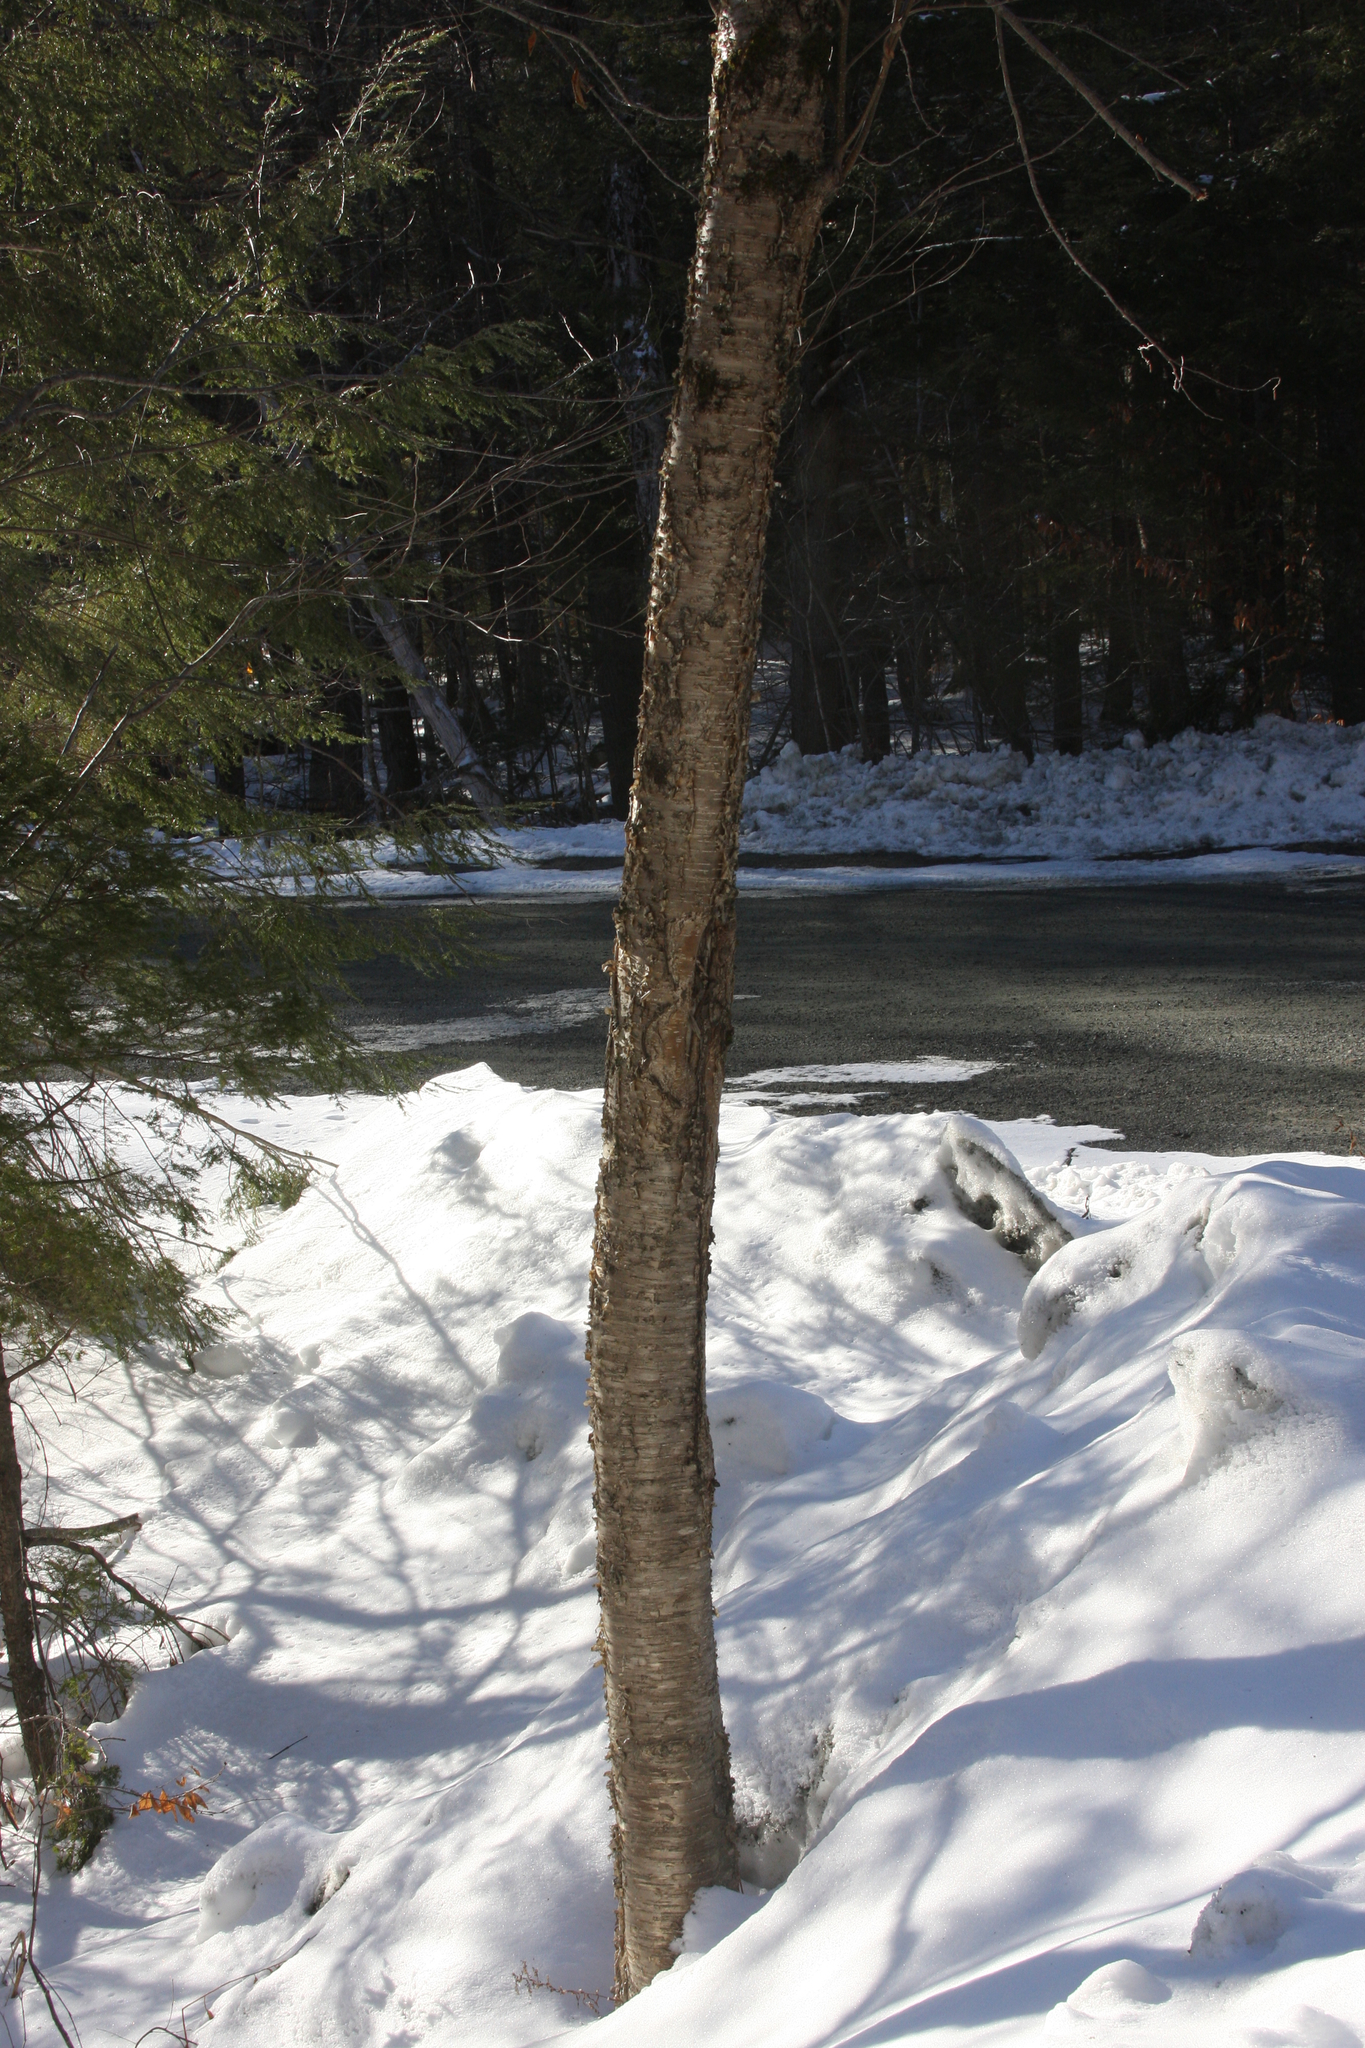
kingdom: Plantae
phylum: Tracheophyta
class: Magnoliopsida
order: Fagales
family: Betulaceae
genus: Betula
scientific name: Betula alleghaniensis
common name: Yellow birch
